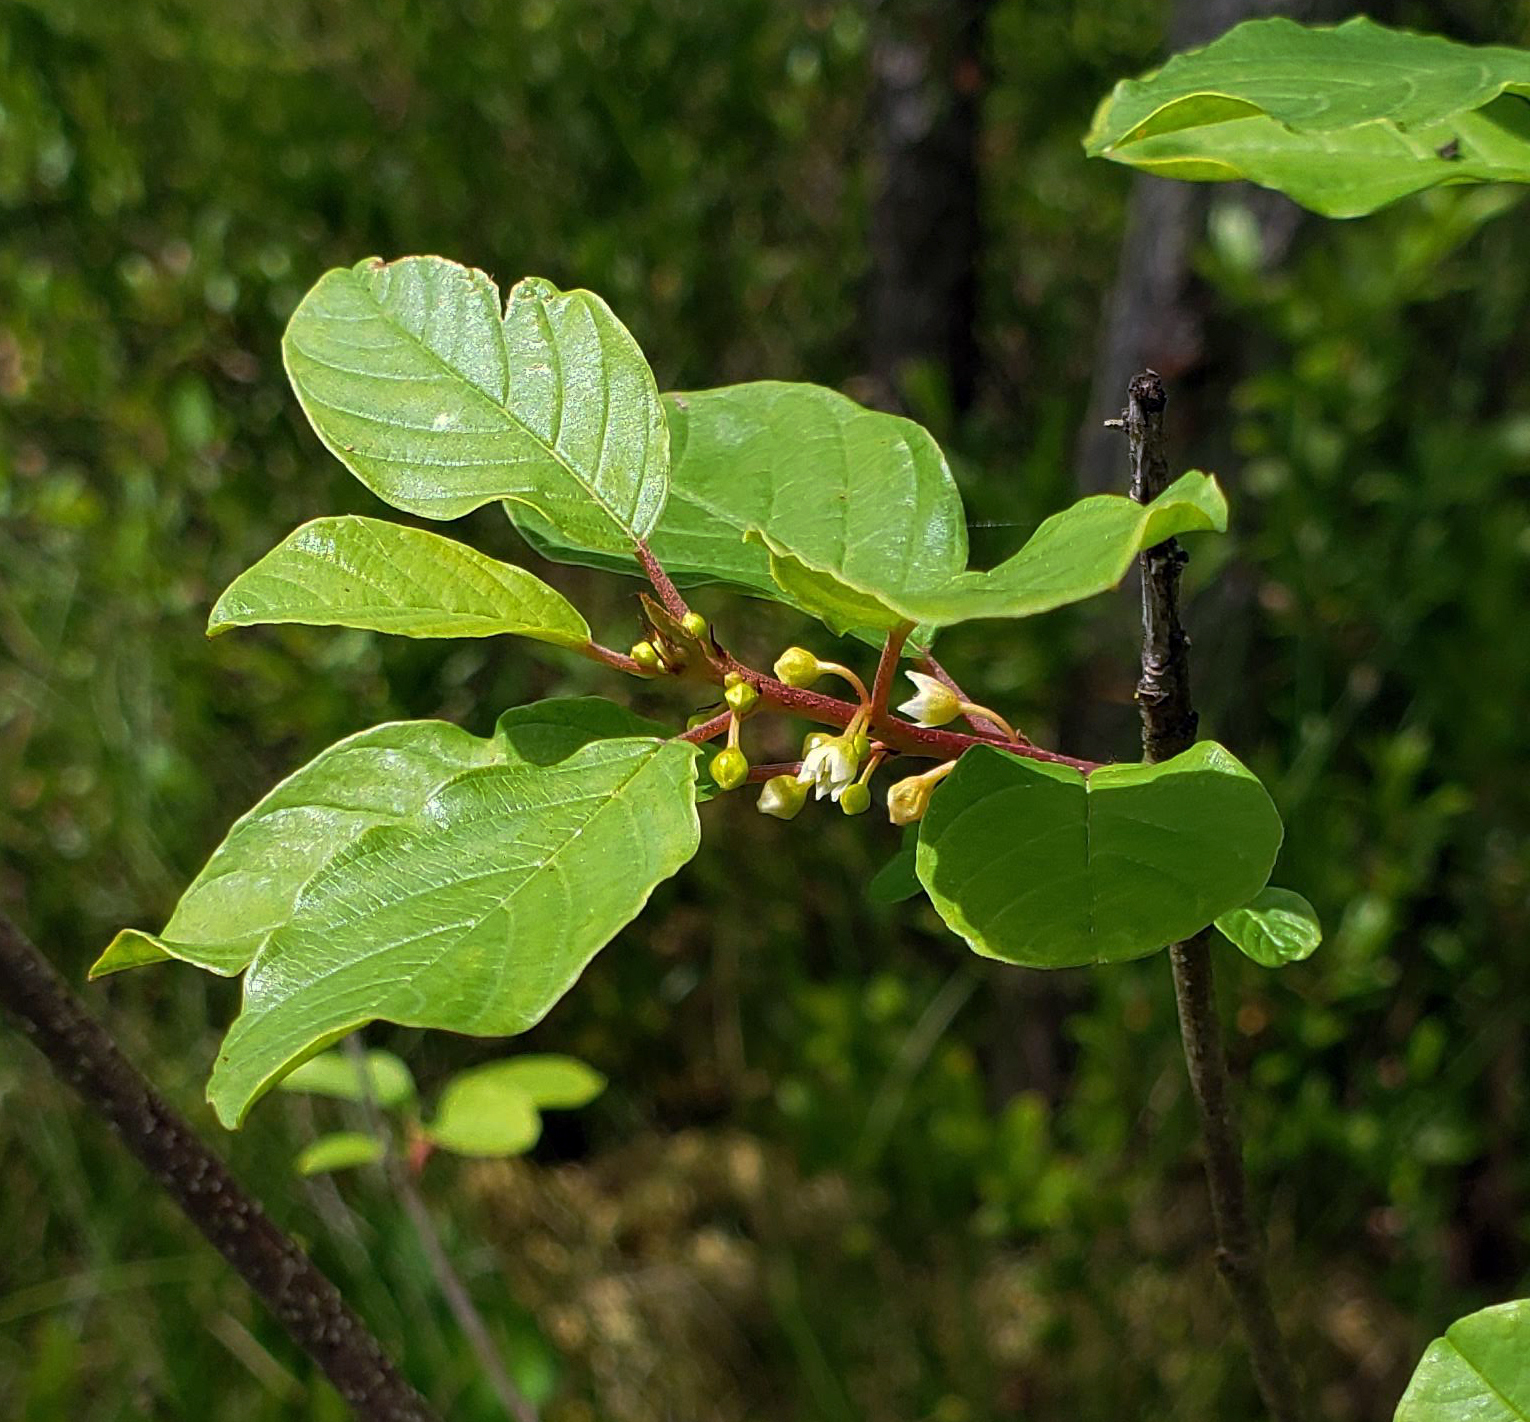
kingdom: Plantae
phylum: Tracheophyta
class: Magnoliopsida
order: Rosales
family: Rhamnaceae
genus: Frangula
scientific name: Frangula alnus
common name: Alder buckthorn
